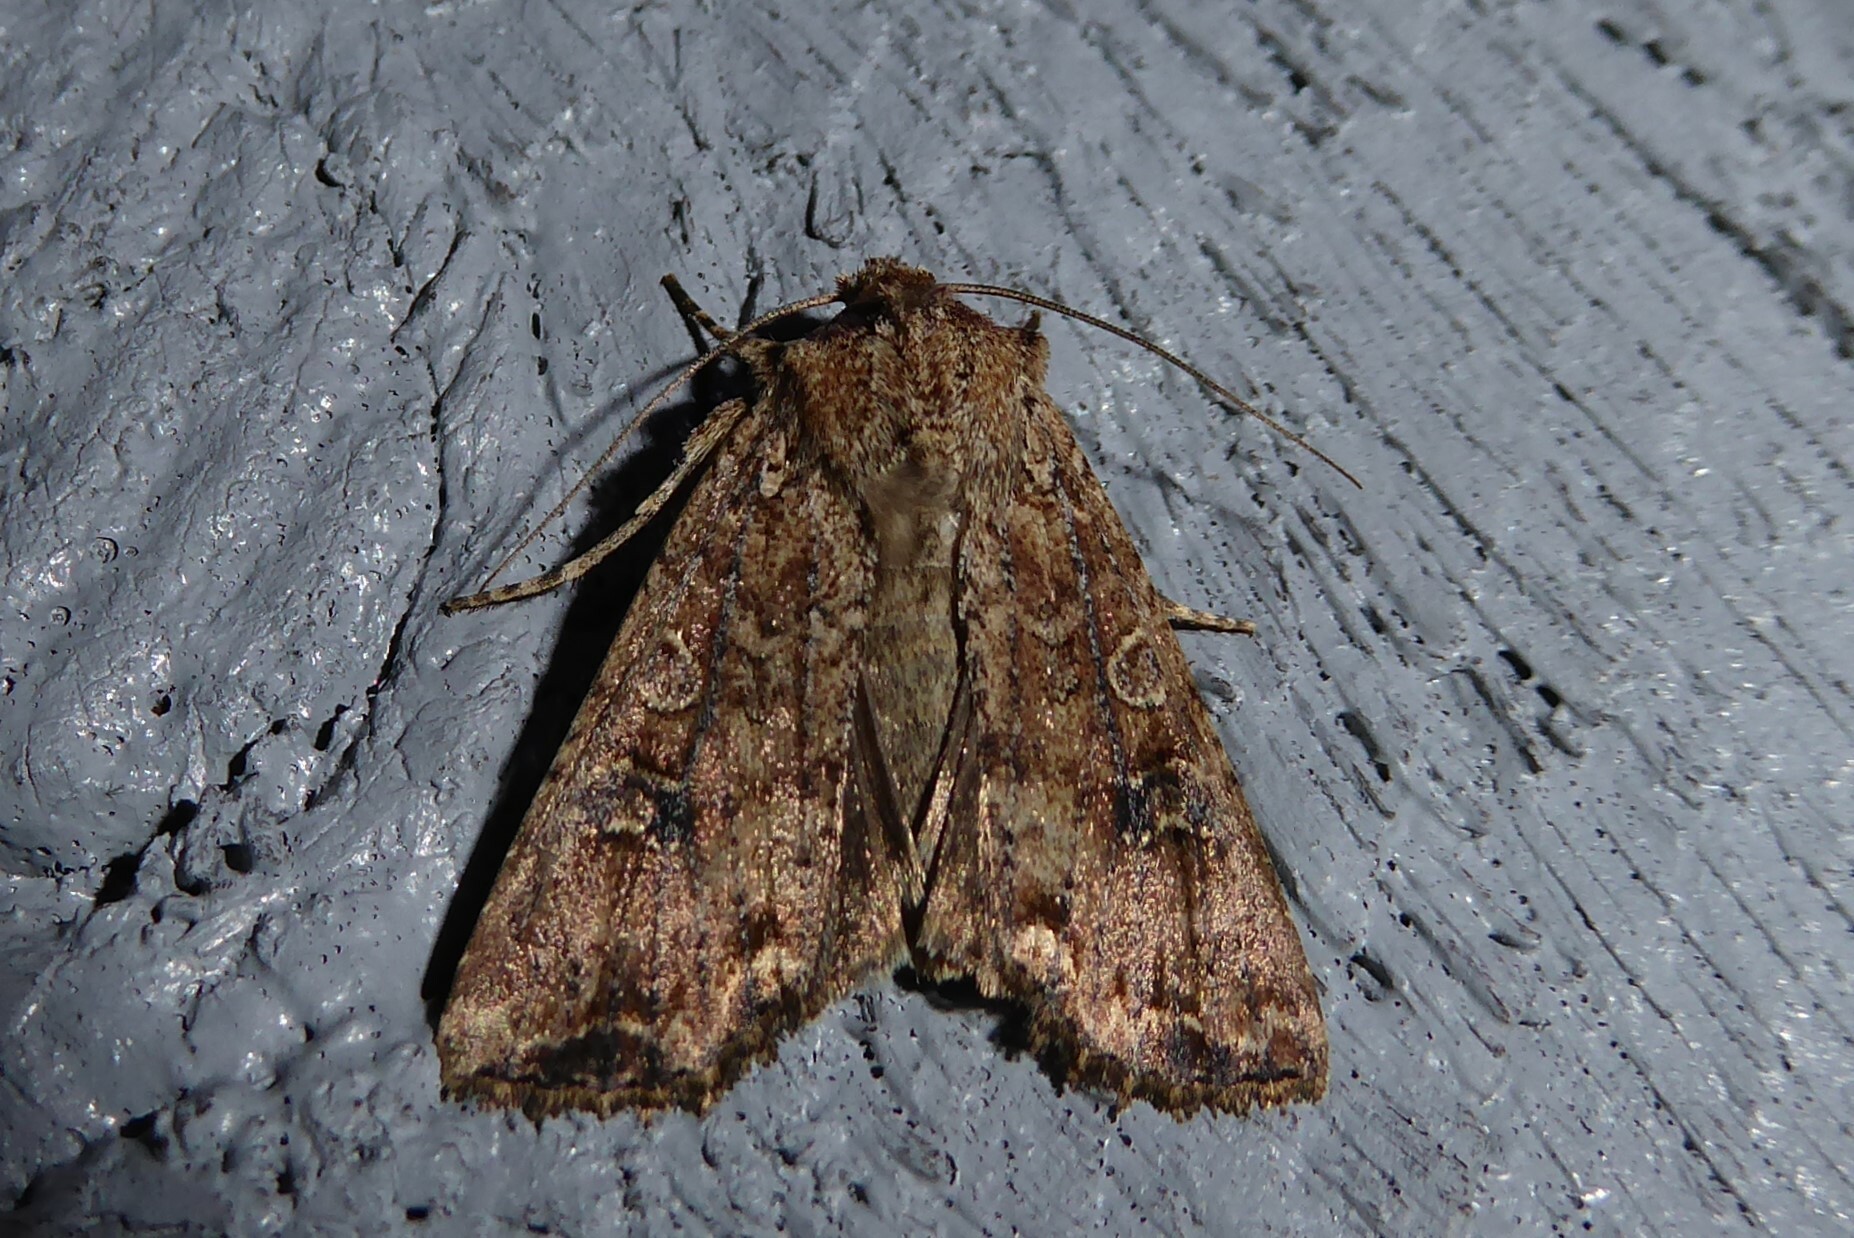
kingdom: Animalia
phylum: Arthropoda
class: Insecta
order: Lepidoptera
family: Noctuidae
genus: Ichneutica
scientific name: Ichneutica morosa
